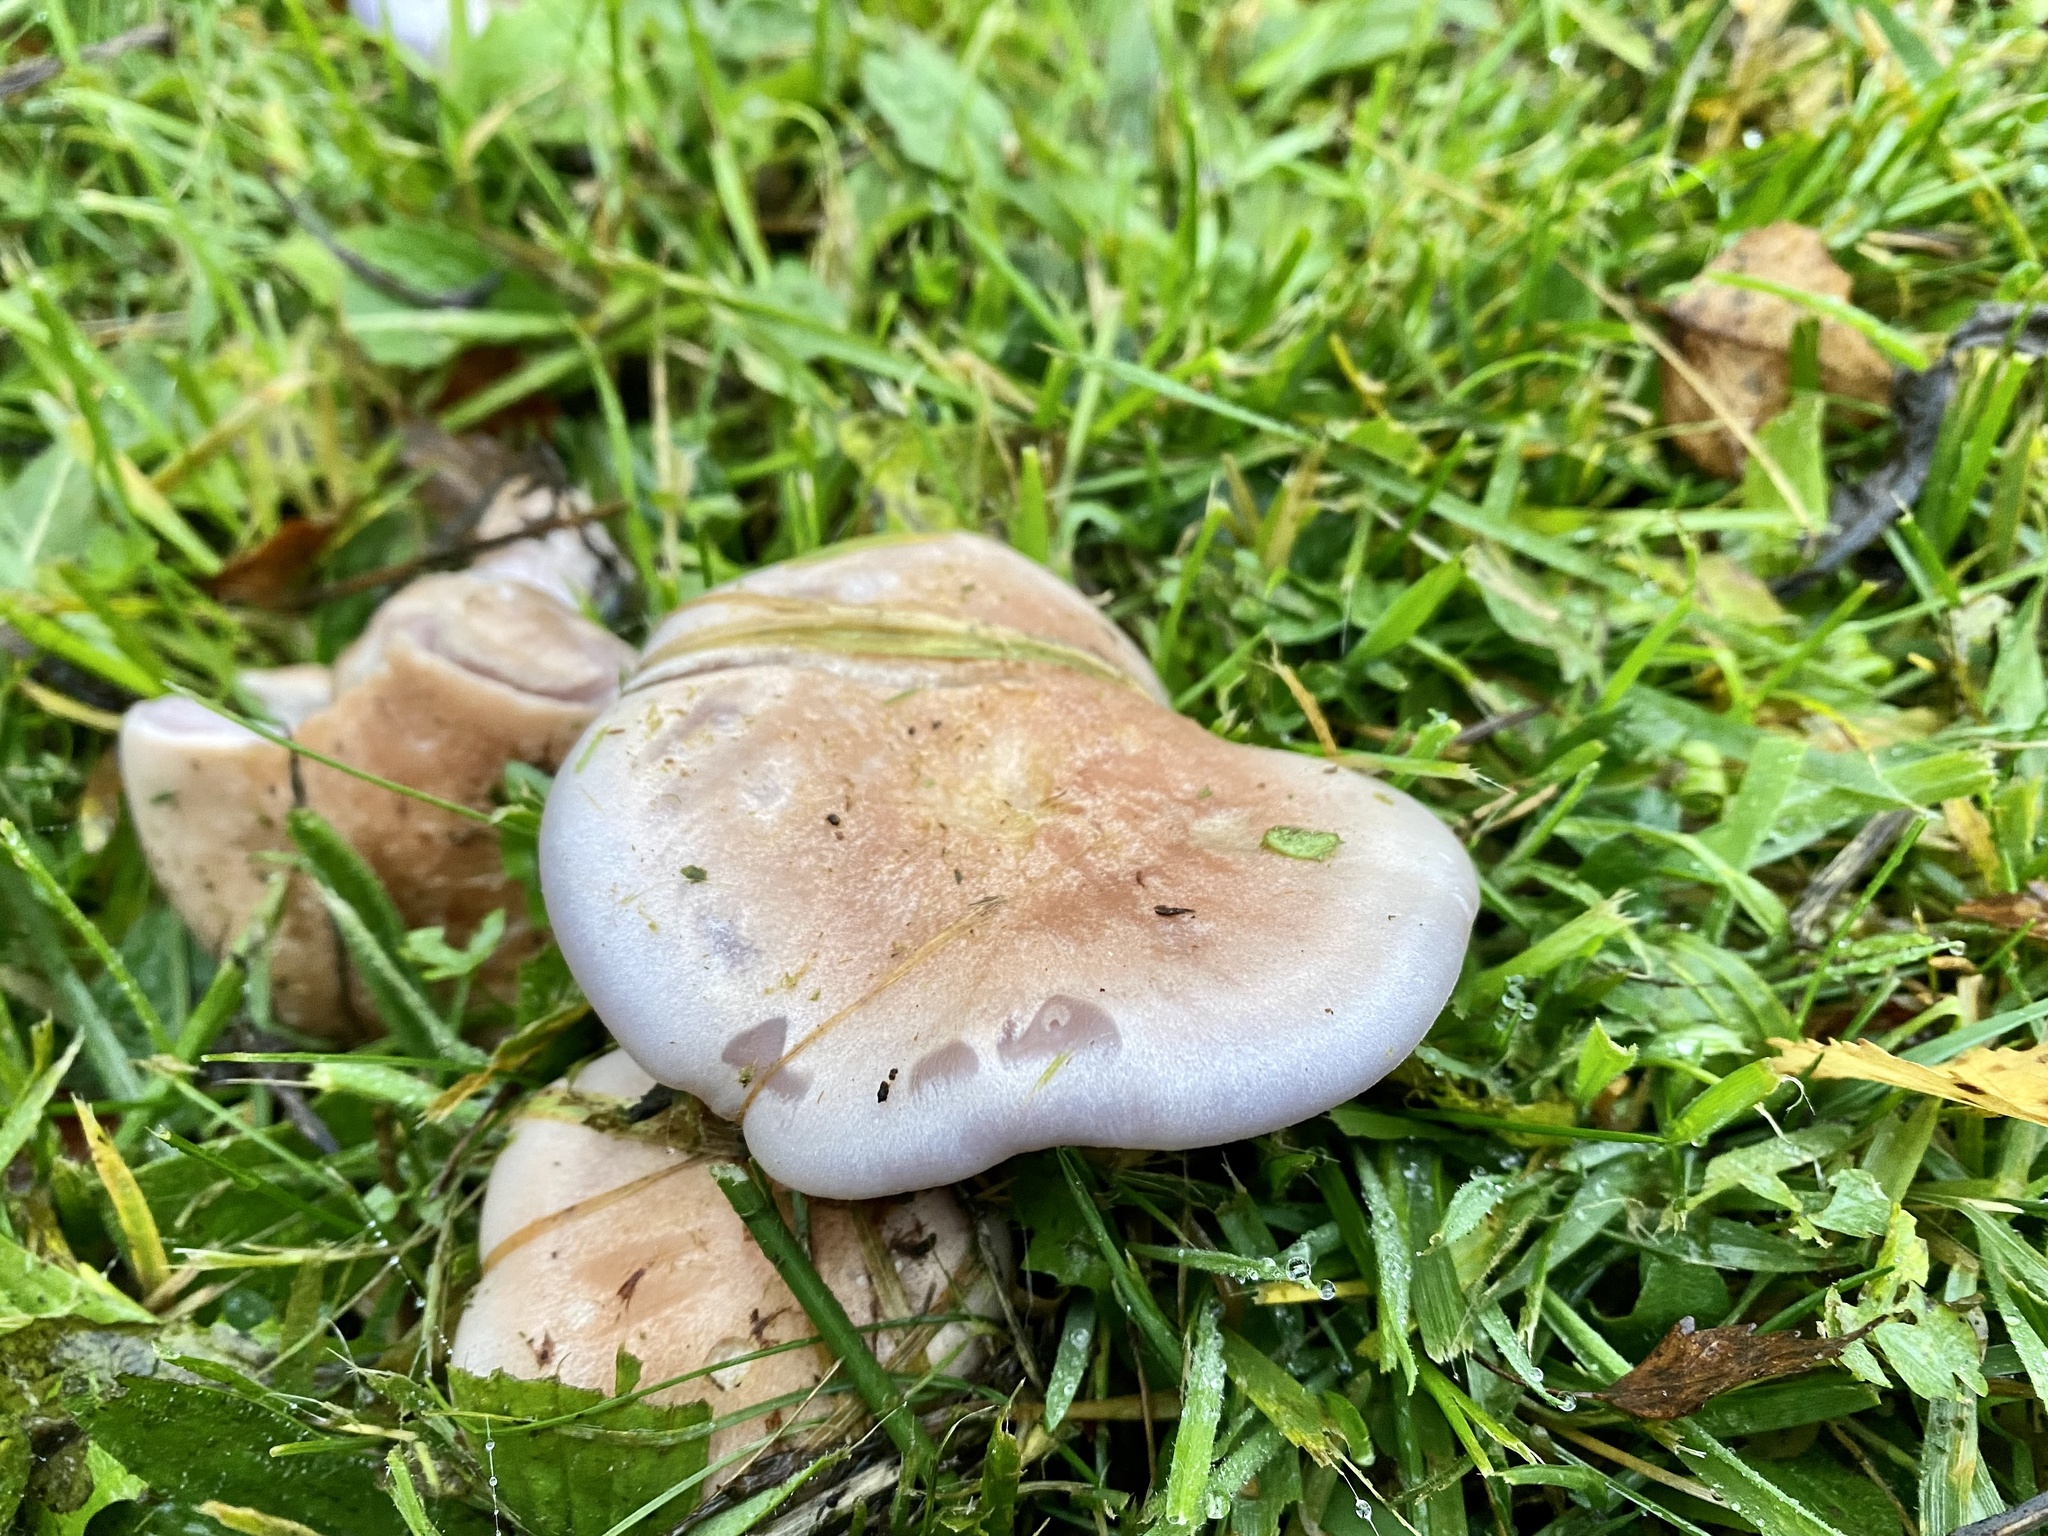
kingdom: Fungi
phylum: Basidiomycota
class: Agaricomycetes
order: Agaricales
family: Omphalotaceae
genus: Collybiopsis
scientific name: Collybiopsis peronata
